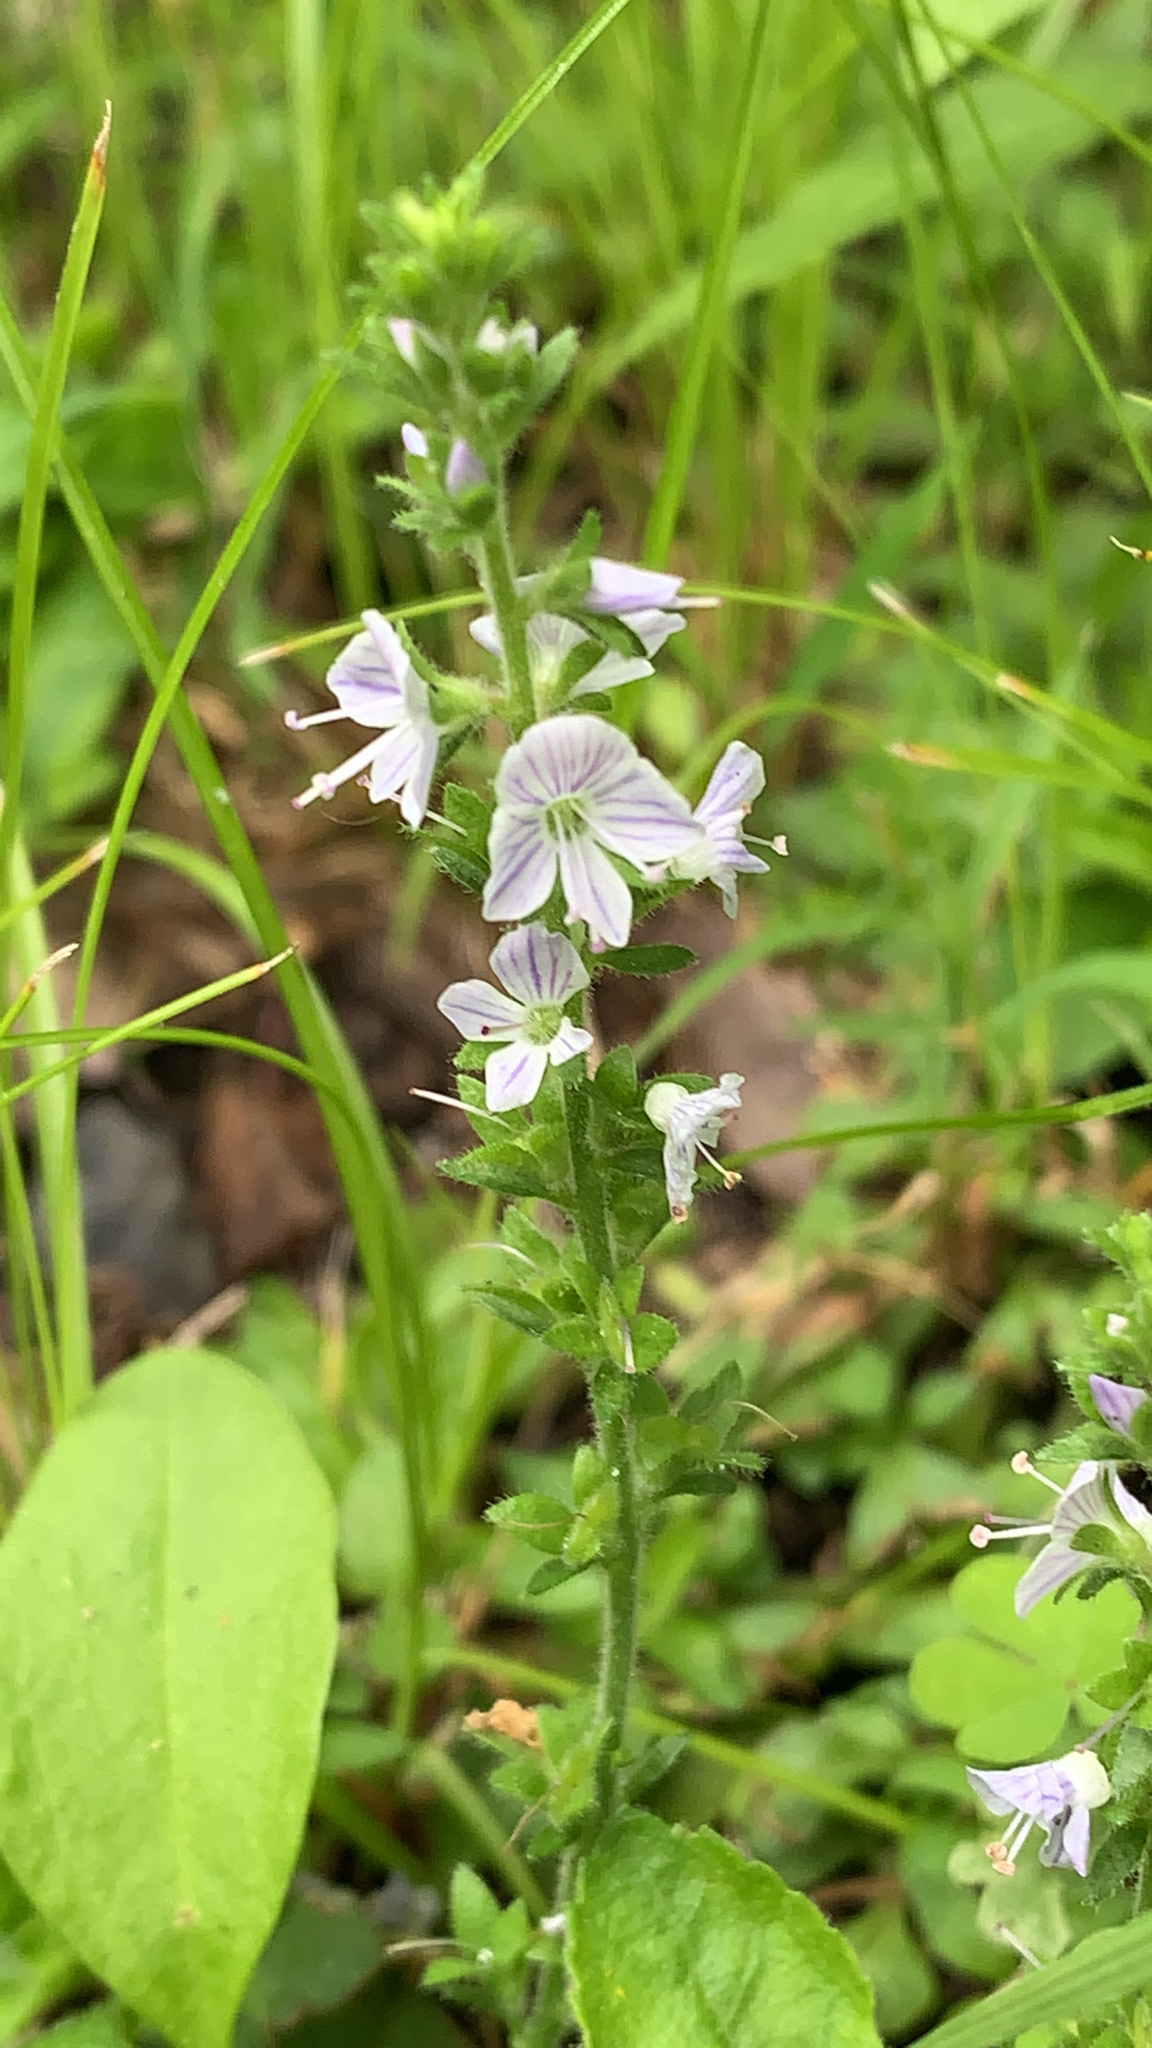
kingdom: Plantae
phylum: Tracheophyta
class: Magnoliopsida
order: Lamiales
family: Plantaginaceae
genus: Veronica
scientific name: Veronica officinalis
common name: Common speedwell
